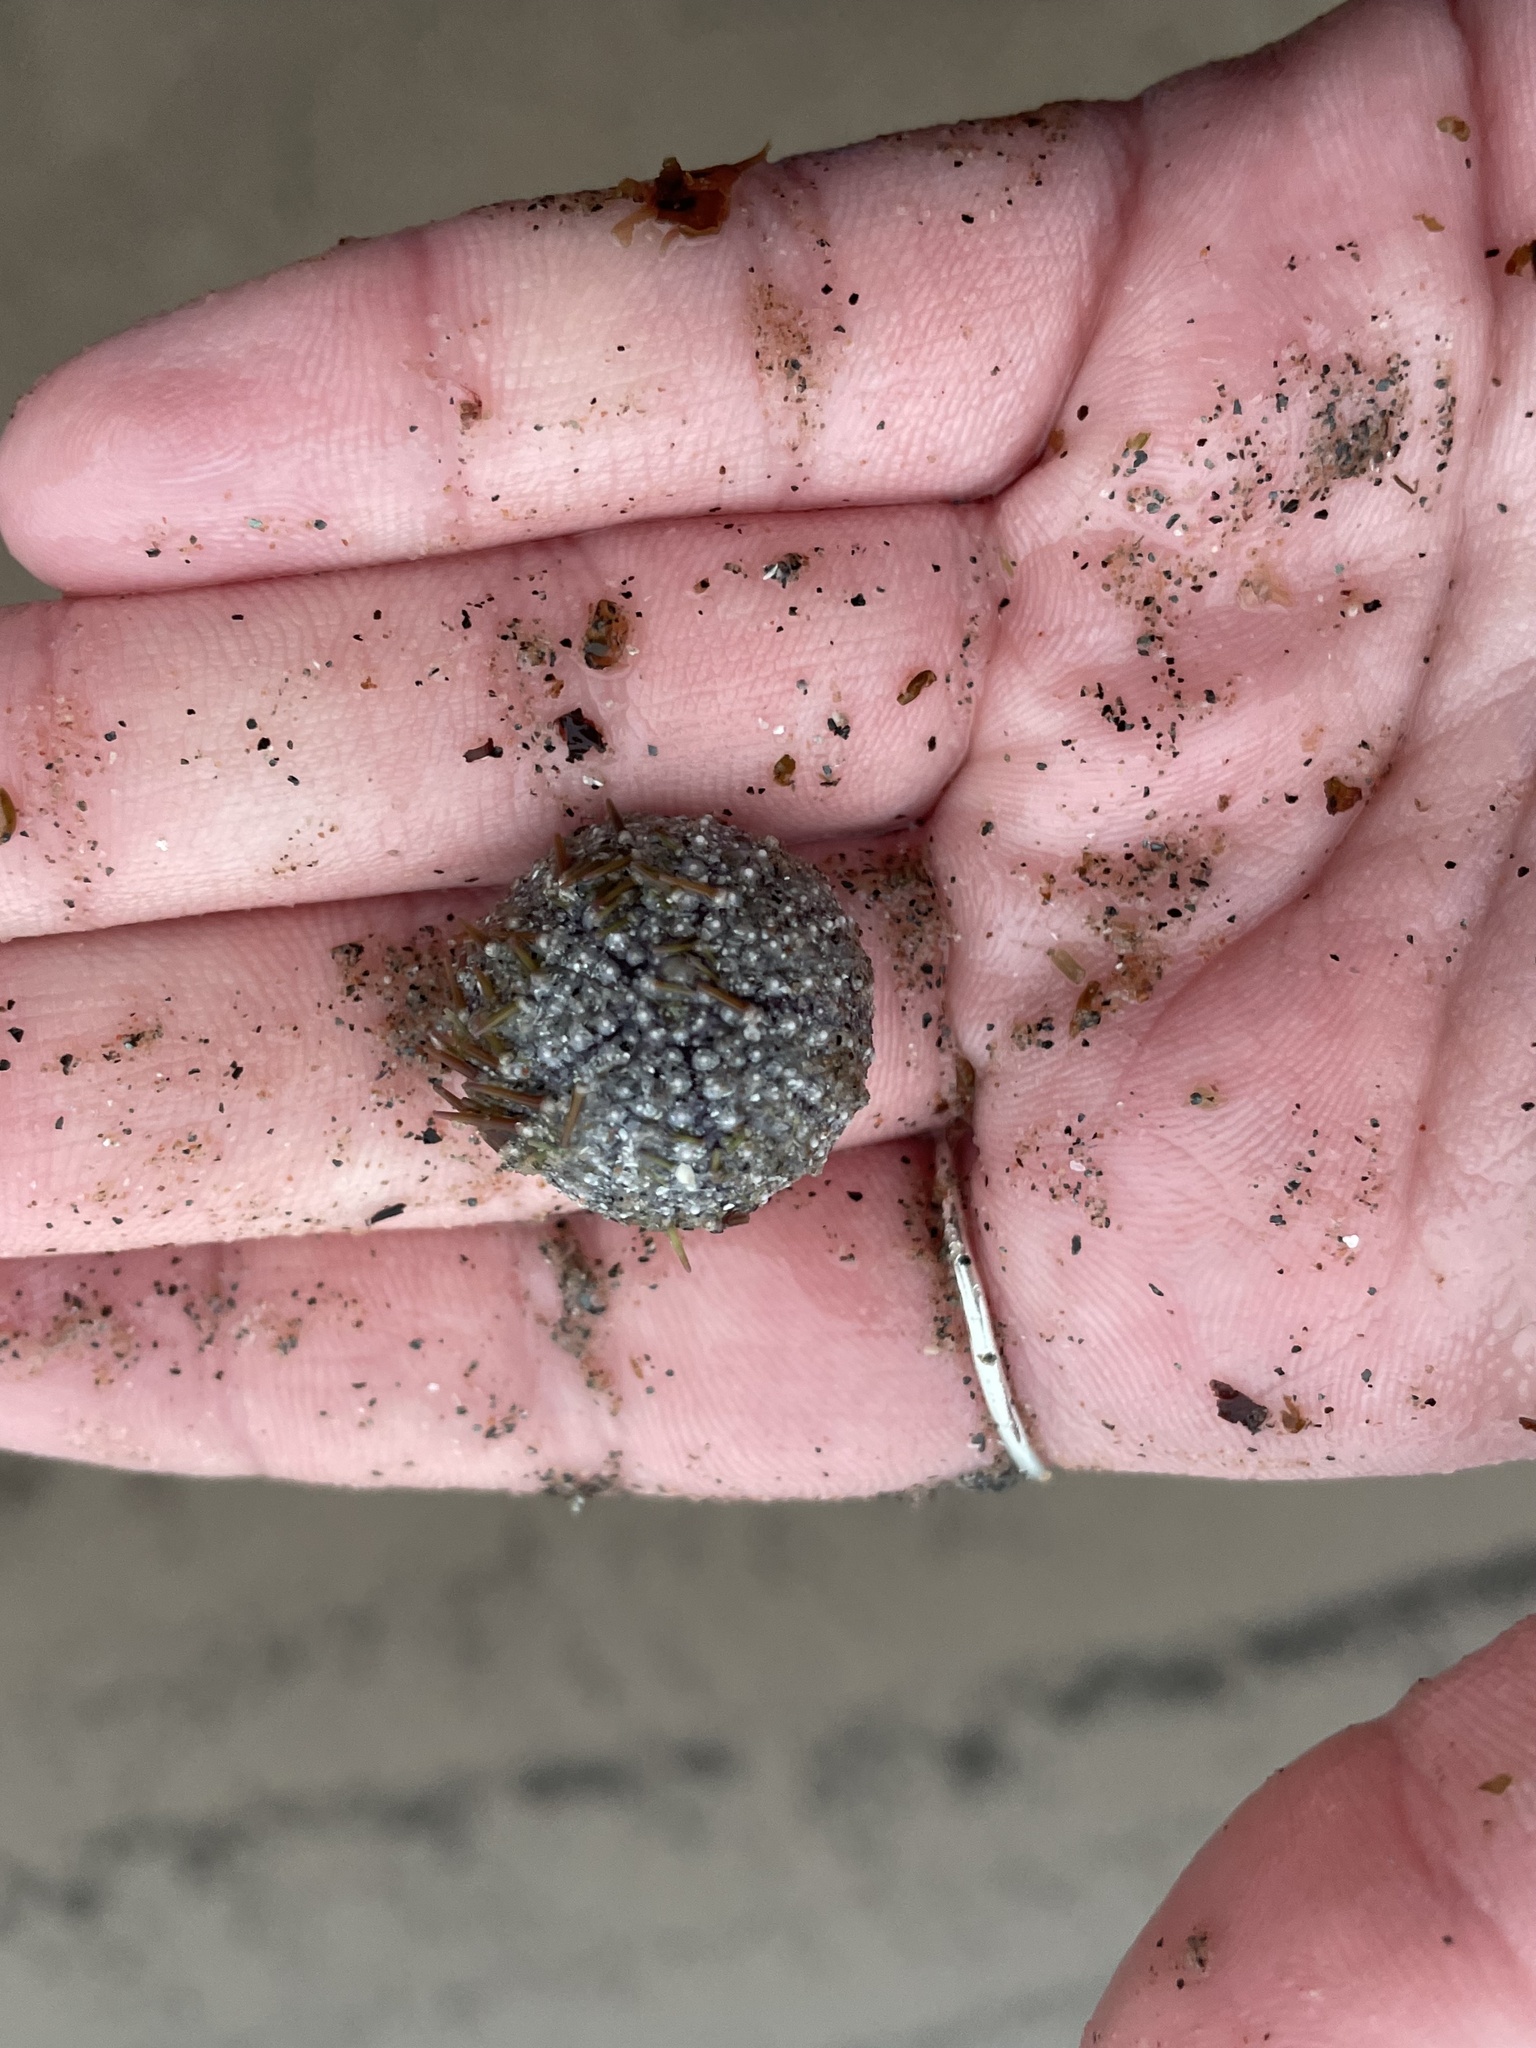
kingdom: Animalia
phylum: Echinodermata
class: Echinoidea
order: Camarodonta
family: Strongylocentrotidae
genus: Strongylocentrotus
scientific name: Strongylocentrotus droebachiensis
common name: Northern sea urchin
